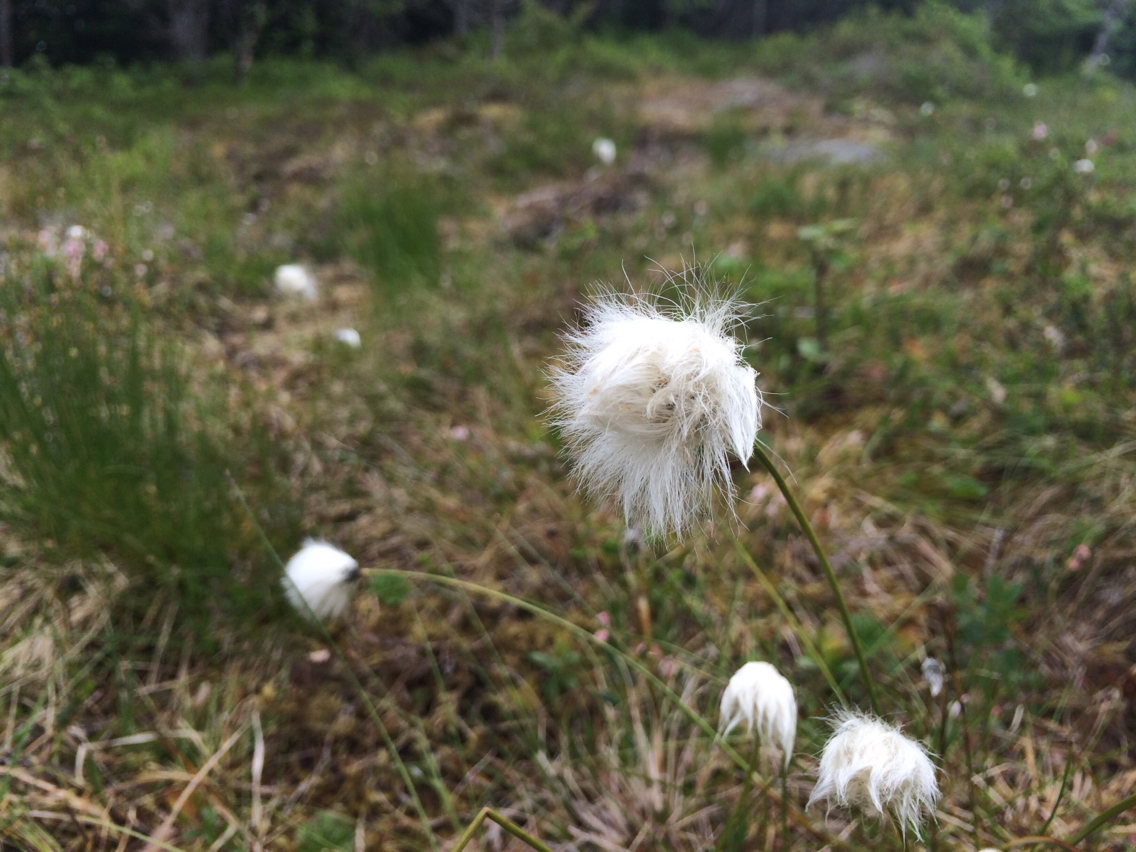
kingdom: Plantae
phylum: Tracheophyta
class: Liliopsida
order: Poales
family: Cyperaceae
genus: Eriophorum
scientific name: Eriophorum scheuchzeri
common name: Scheuchzer's cottongrass
